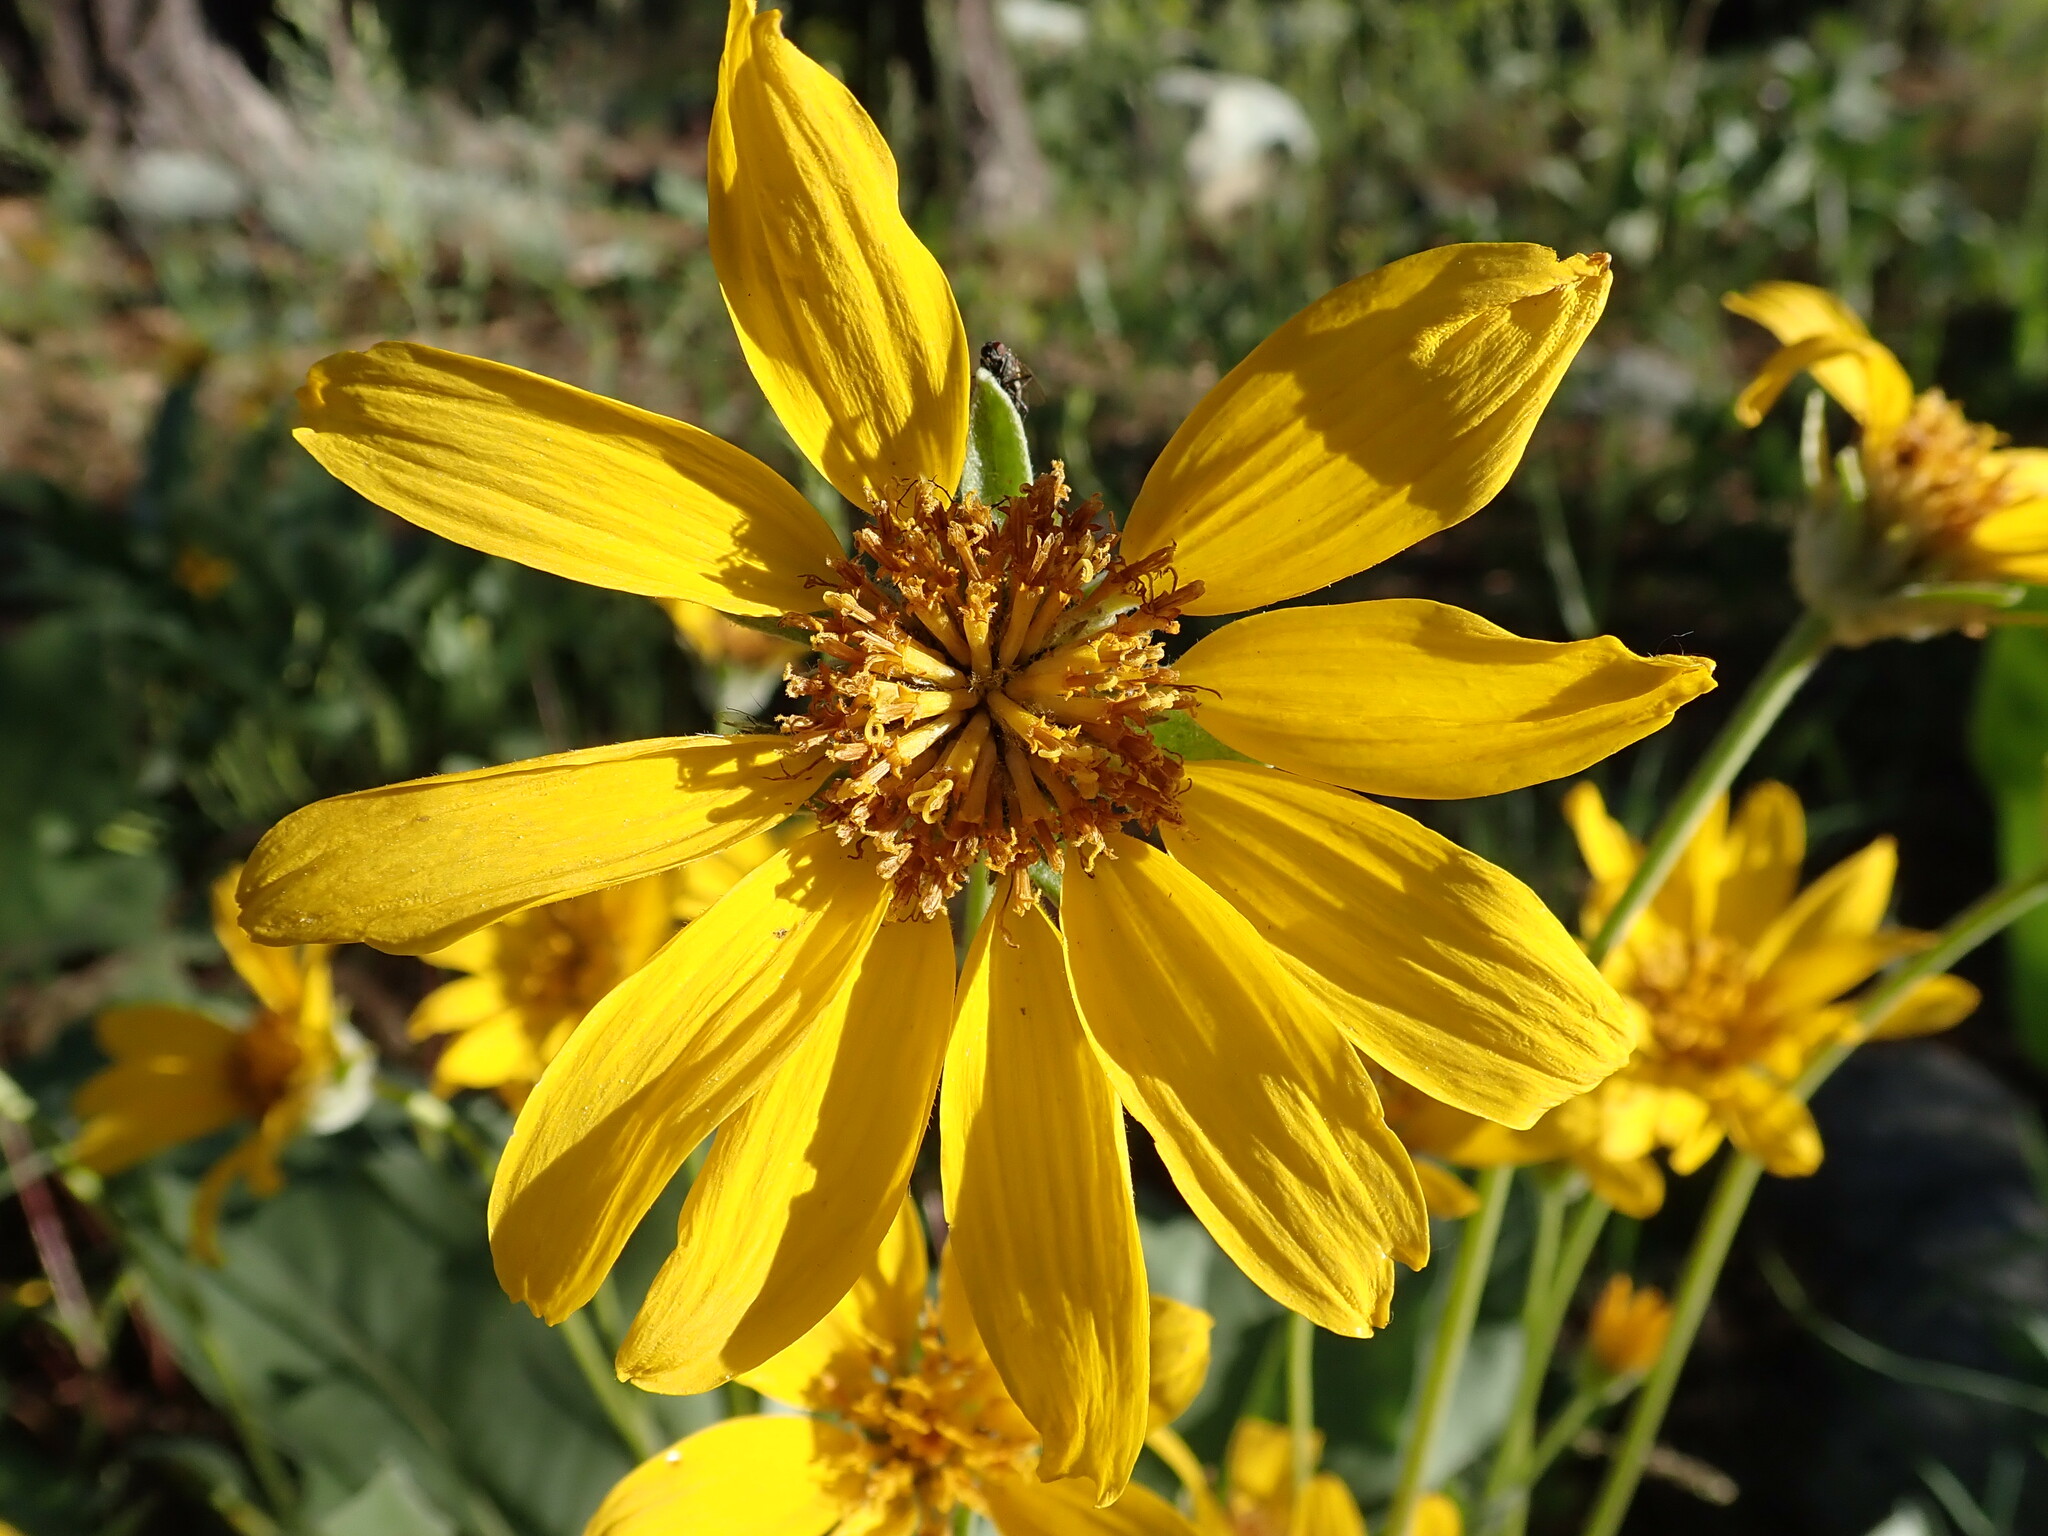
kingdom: Plantae
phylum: Tracheophyta
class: Magnoliopsida
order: Asterales
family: Asteraceae
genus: Wyethia
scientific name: Wyethia sagittata
